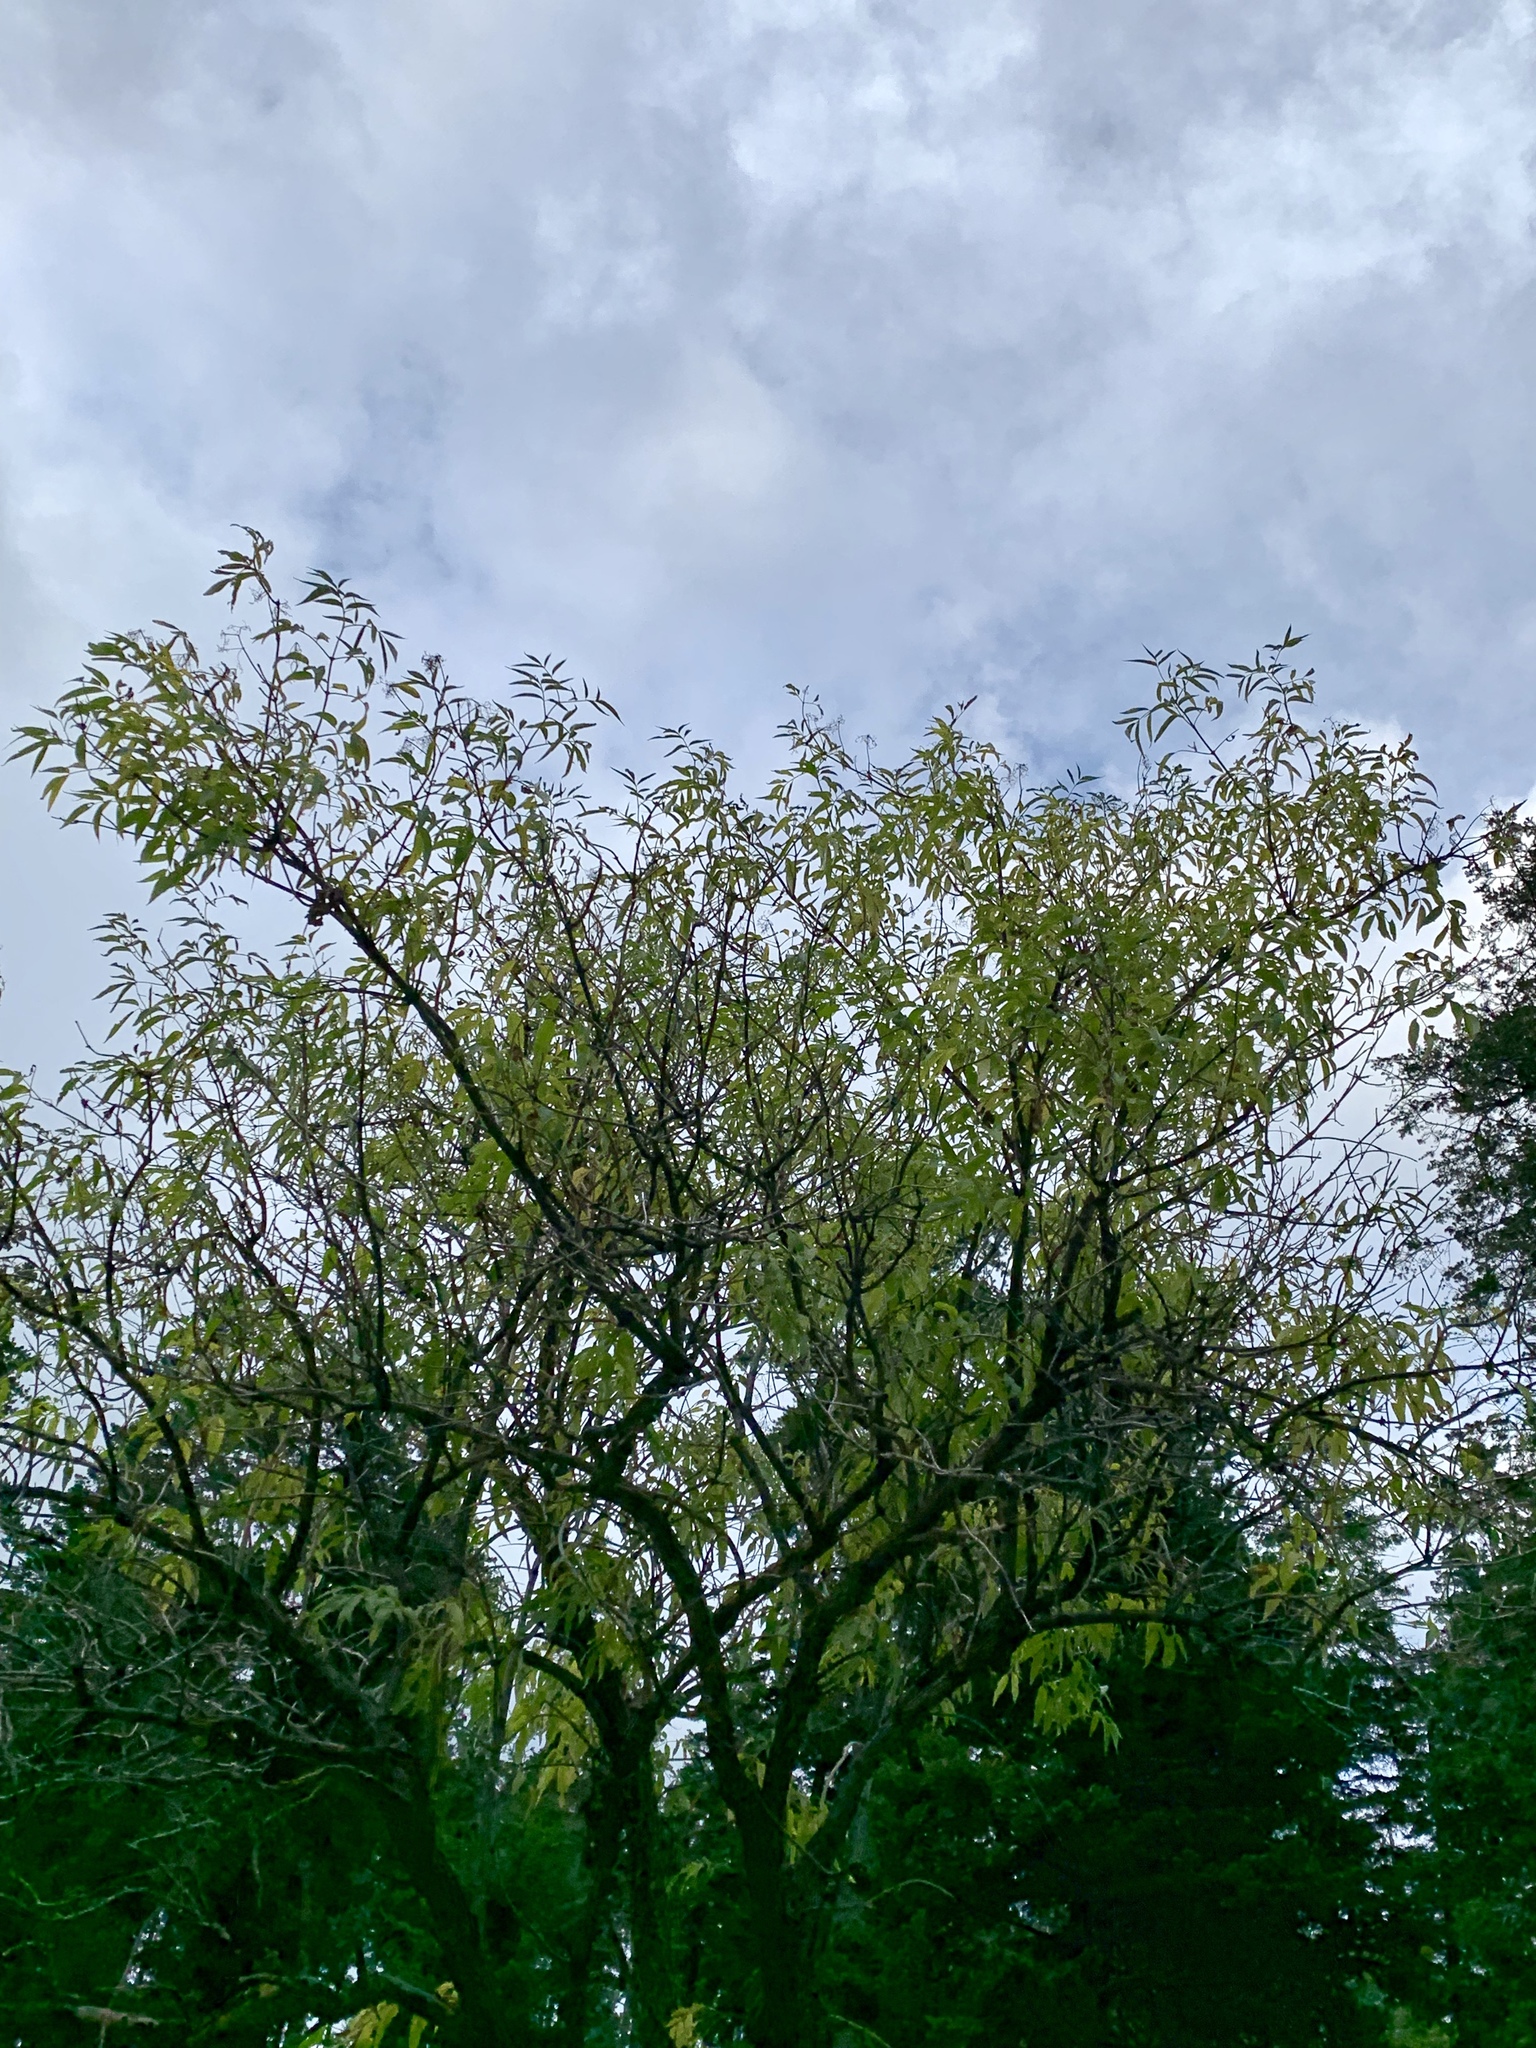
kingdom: Plantae
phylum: Tracheophyta
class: Magnoliopsida
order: Dipsacales
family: Viburnaceae
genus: Sambucus
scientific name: Sambucus cerulea
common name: Blue elder
